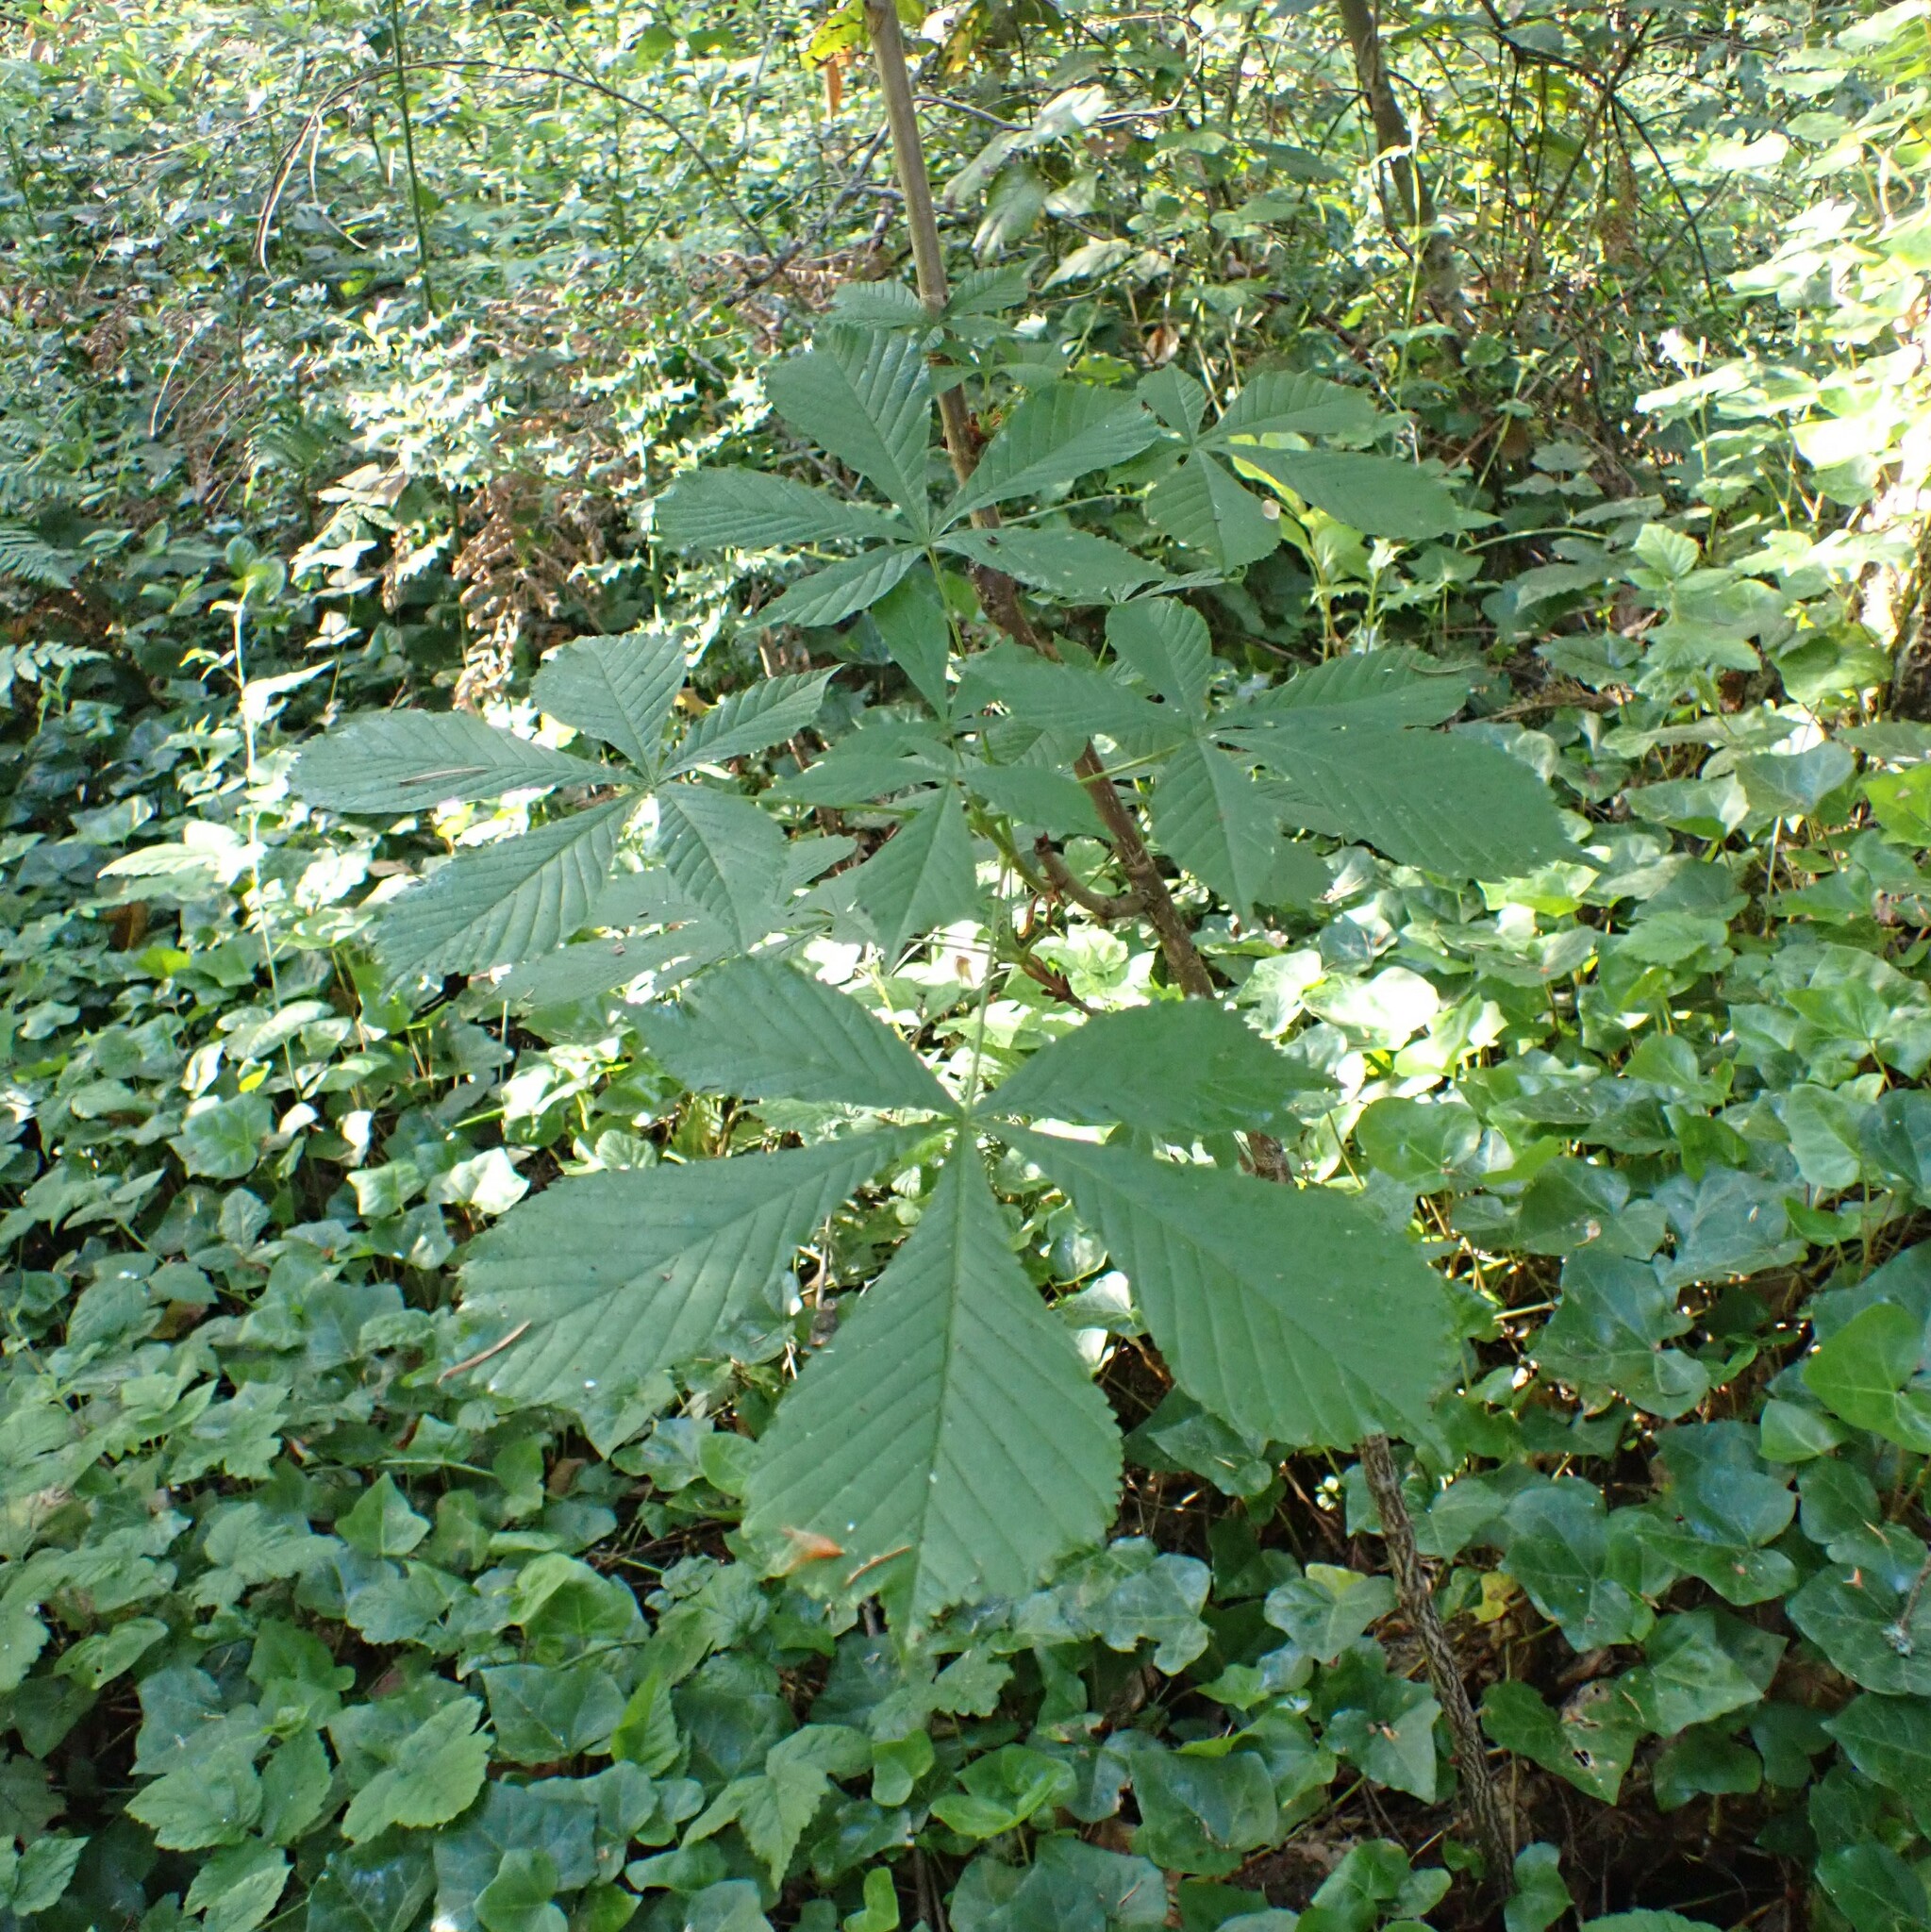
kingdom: Plantae
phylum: Tracheophyta
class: Magnoliopsida
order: Sapindales
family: Sapindaceae
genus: Aesculus
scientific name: Aesculus hippocastanum
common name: Horse-chestnut
